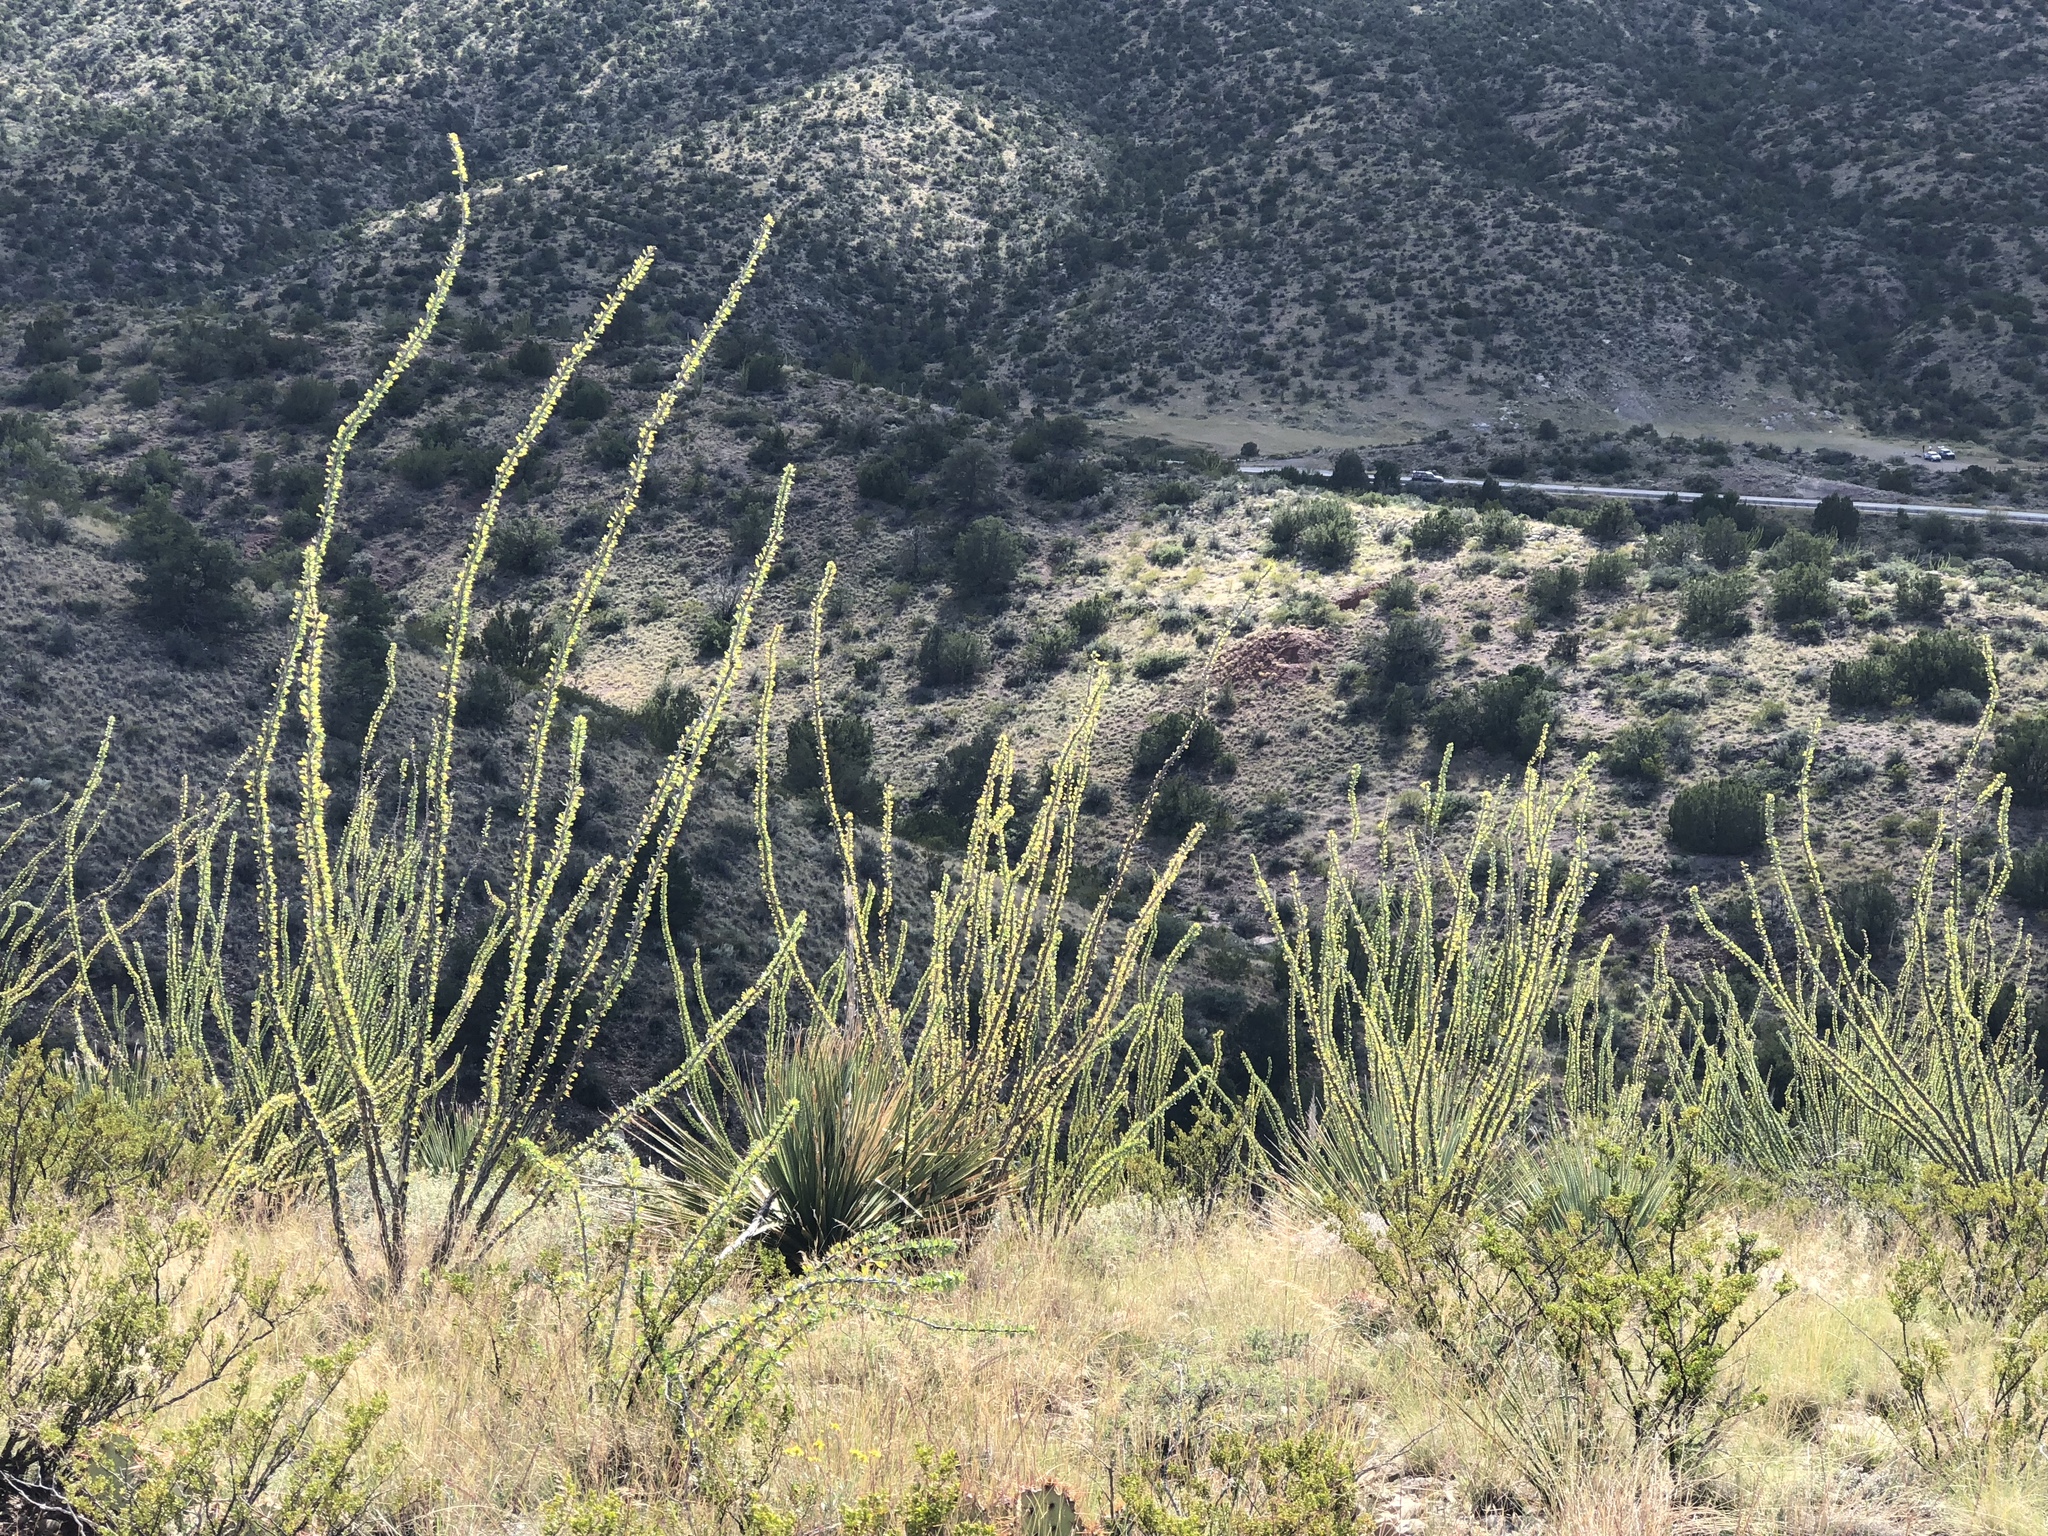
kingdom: Plantae
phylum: Tracheophyta
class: Magnoliopsida
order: Ericales
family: Fouquieriaceae
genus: Fouquieria
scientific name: Fouquieria splendens
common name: Vine-cactus
